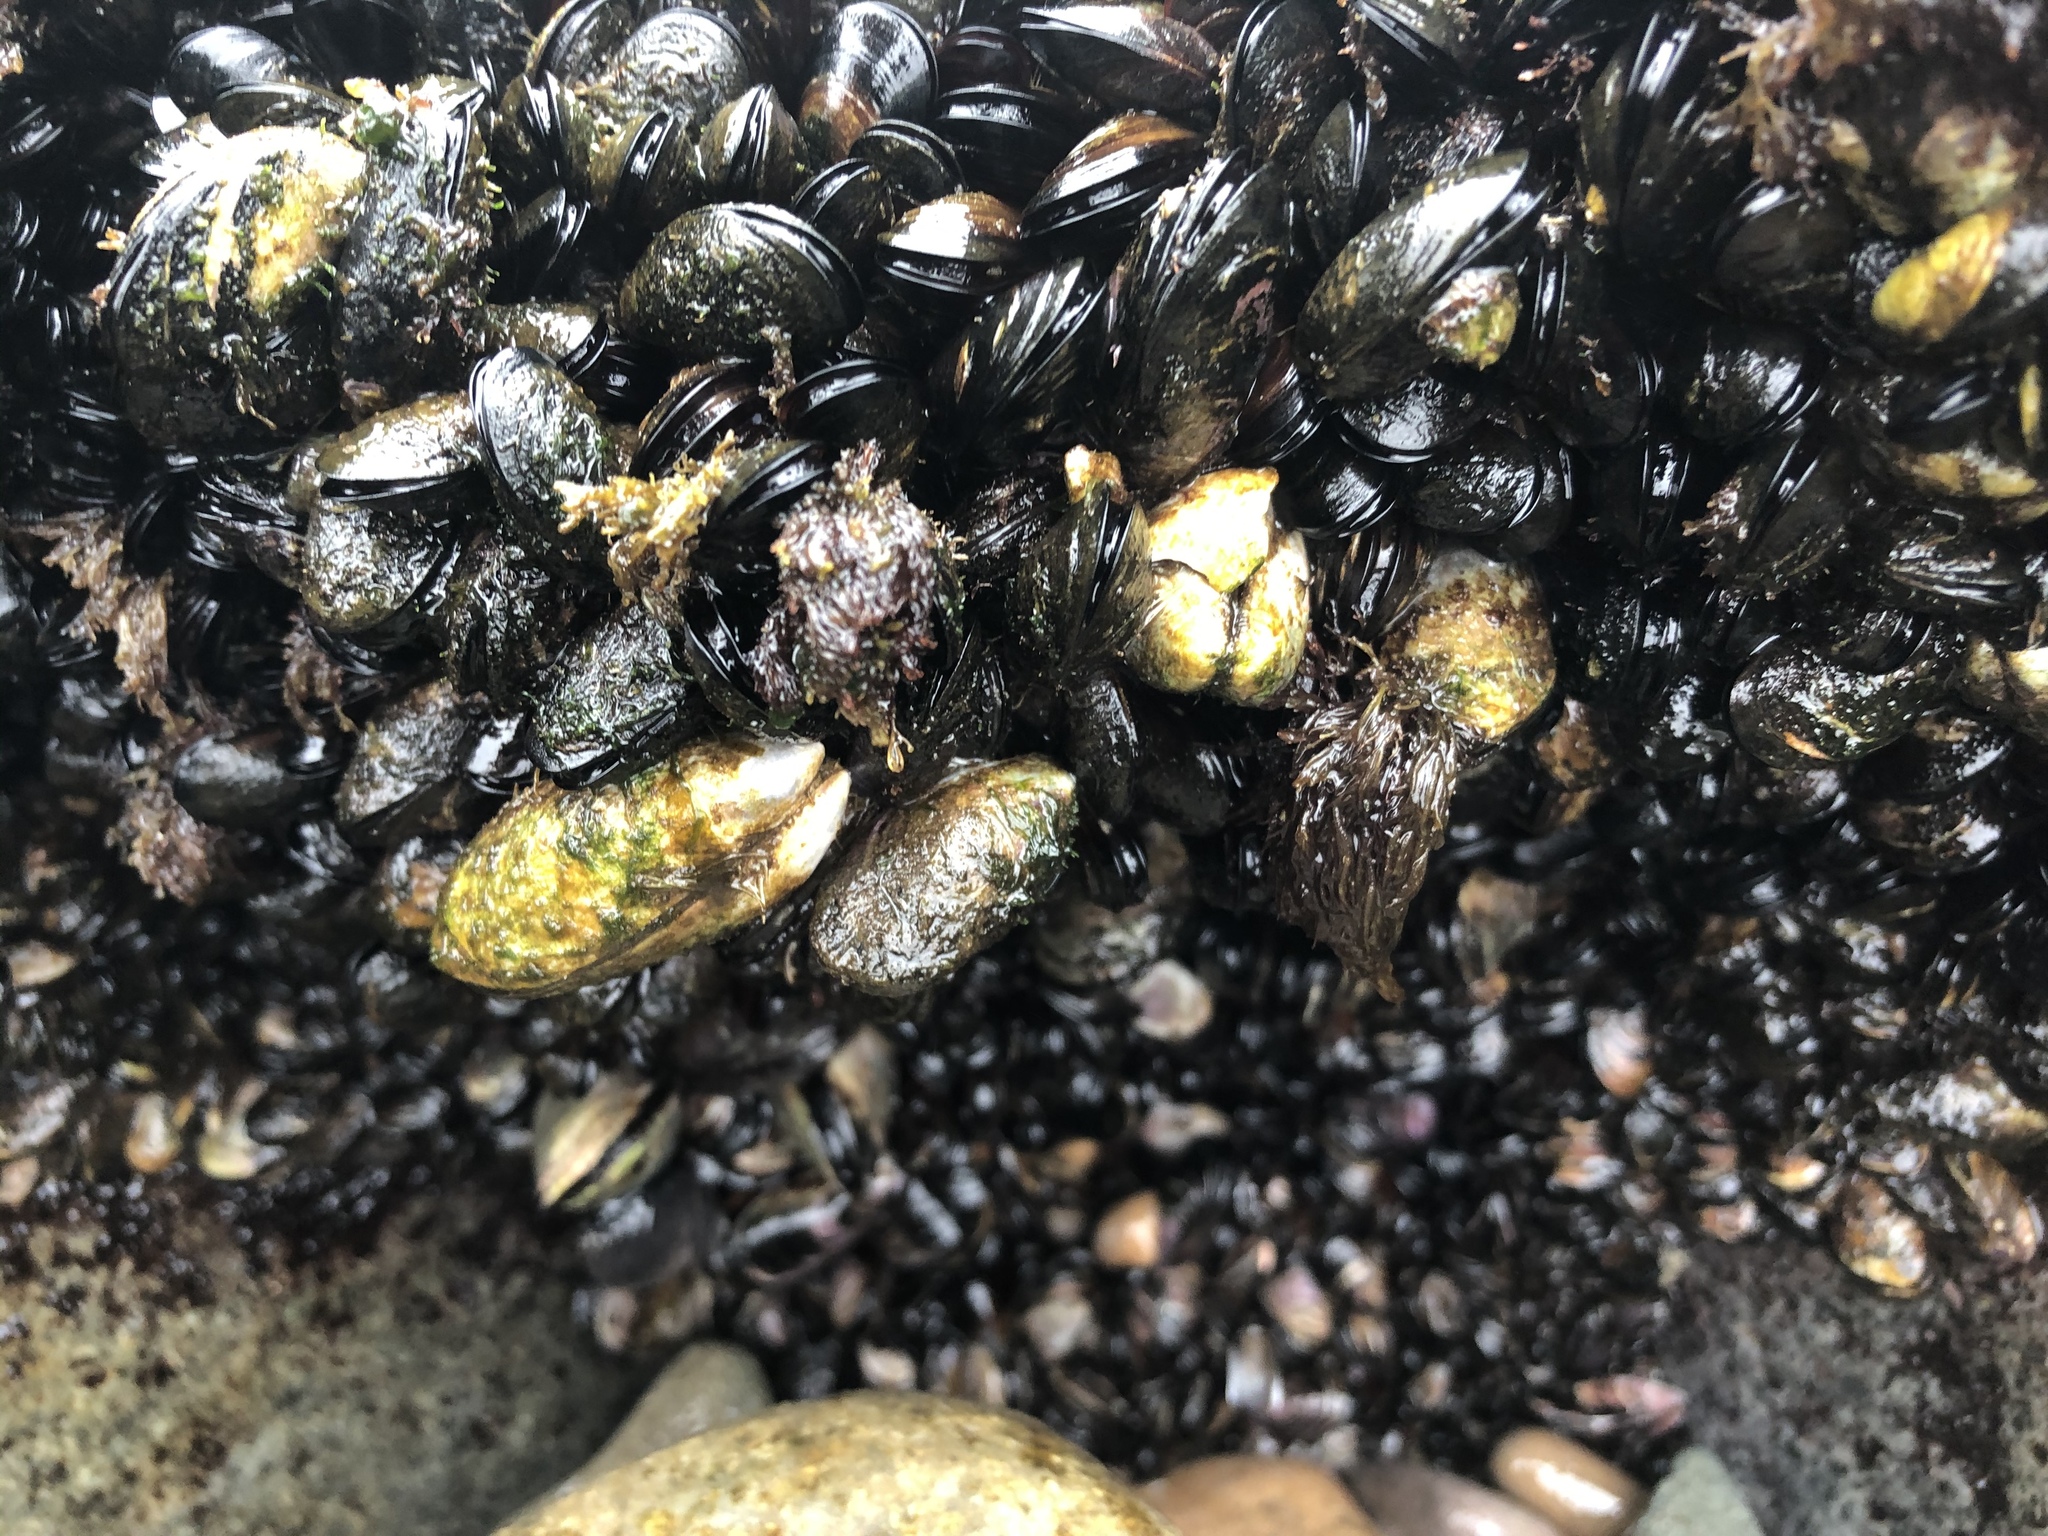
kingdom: Animalia
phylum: Mollusca
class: Bivalvia
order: Mytilida
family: Mytilidae
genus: Semimytilus
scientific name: Semimytilus patagonicus
